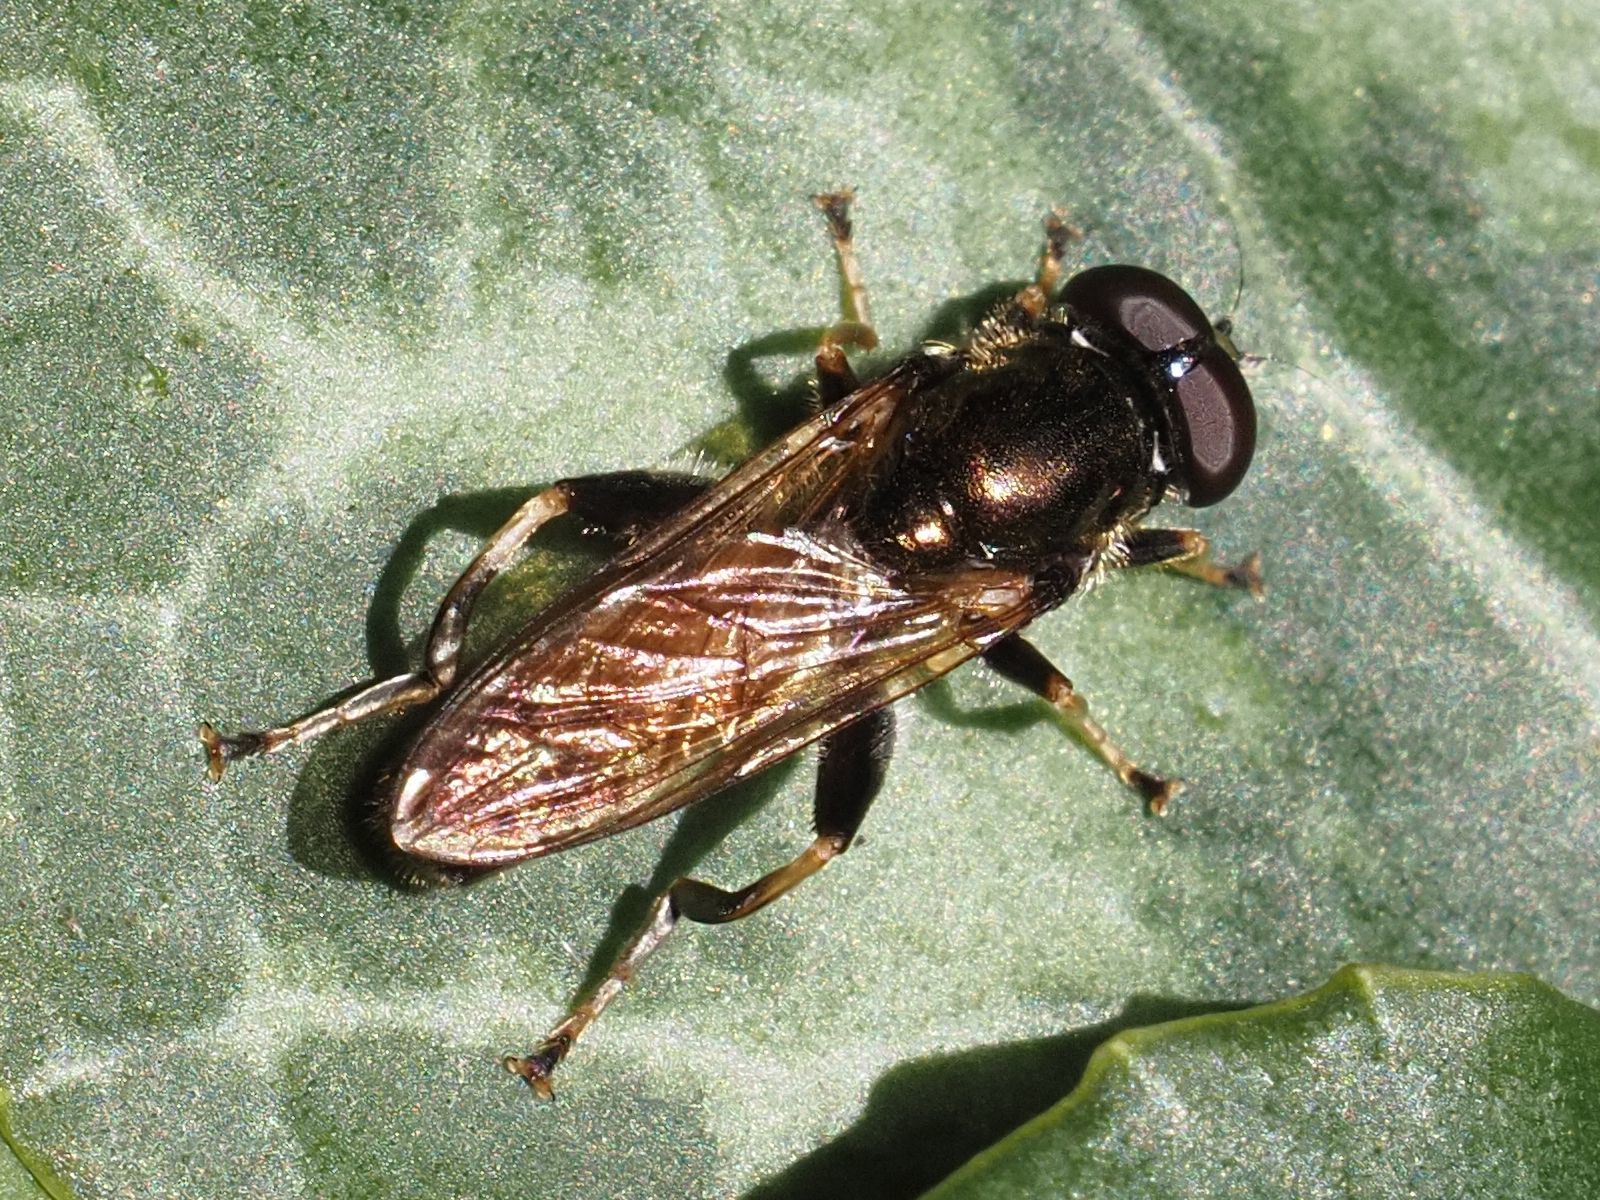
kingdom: Animalia
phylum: Arthropoda
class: Insecta
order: Diptera
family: Syrphidae
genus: Xylota
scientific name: Xylota segnis
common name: Brown-toed forest fly
